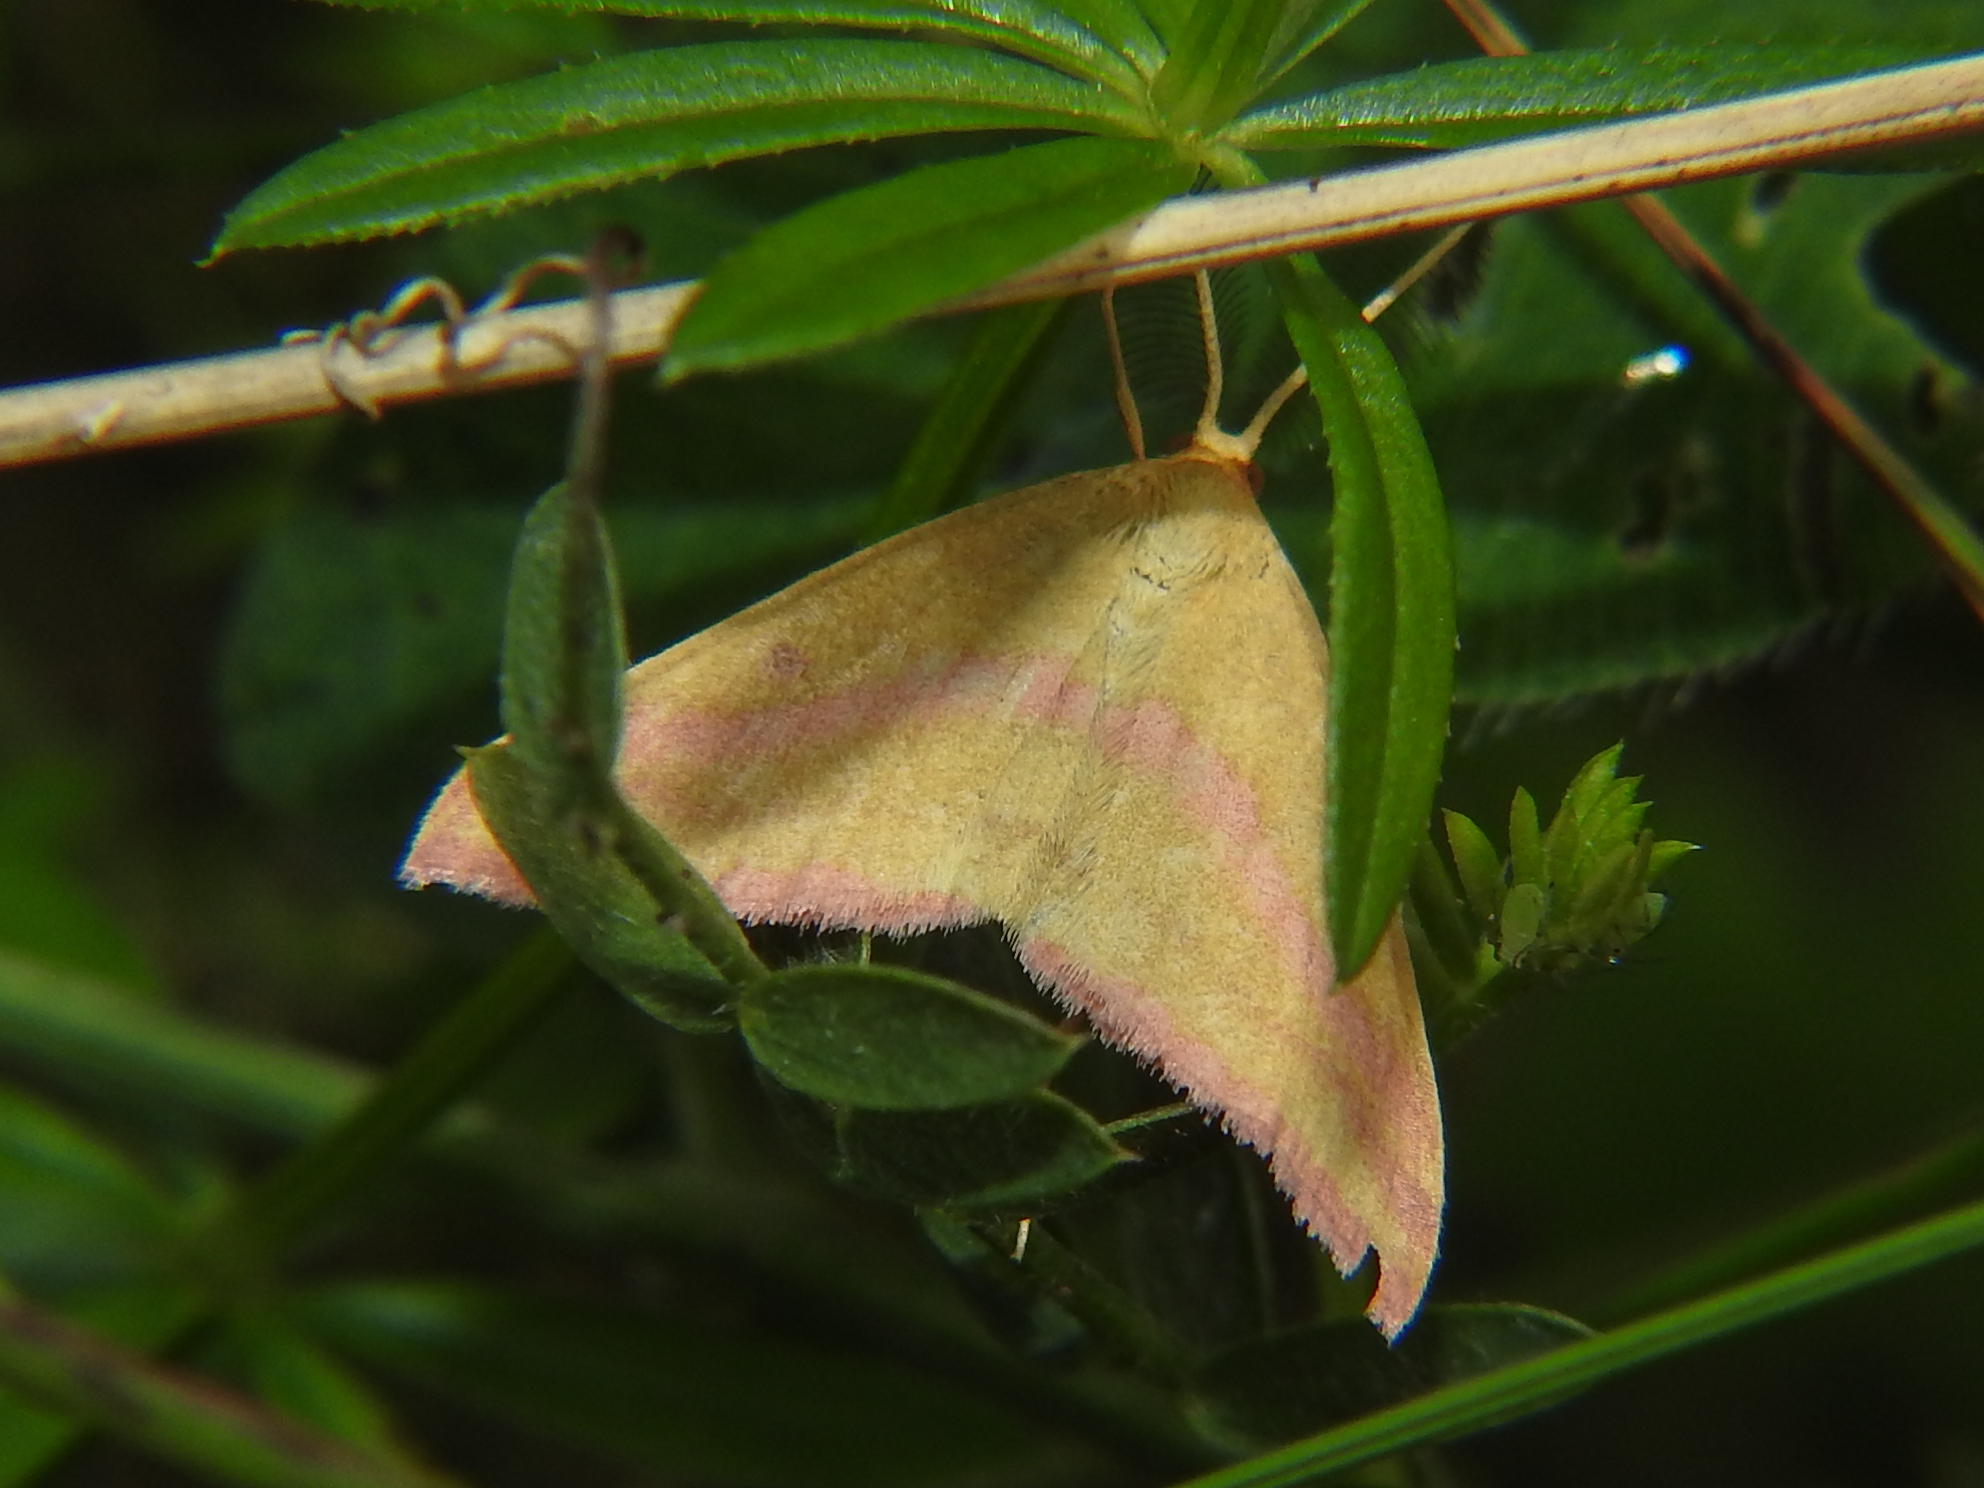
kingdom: Animalia
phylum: Arthropoda
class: Insecta
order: Lepidoptera
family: Geometridae
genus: Haematopis
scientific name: Haematopis grataria
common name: Chickweed geometer
